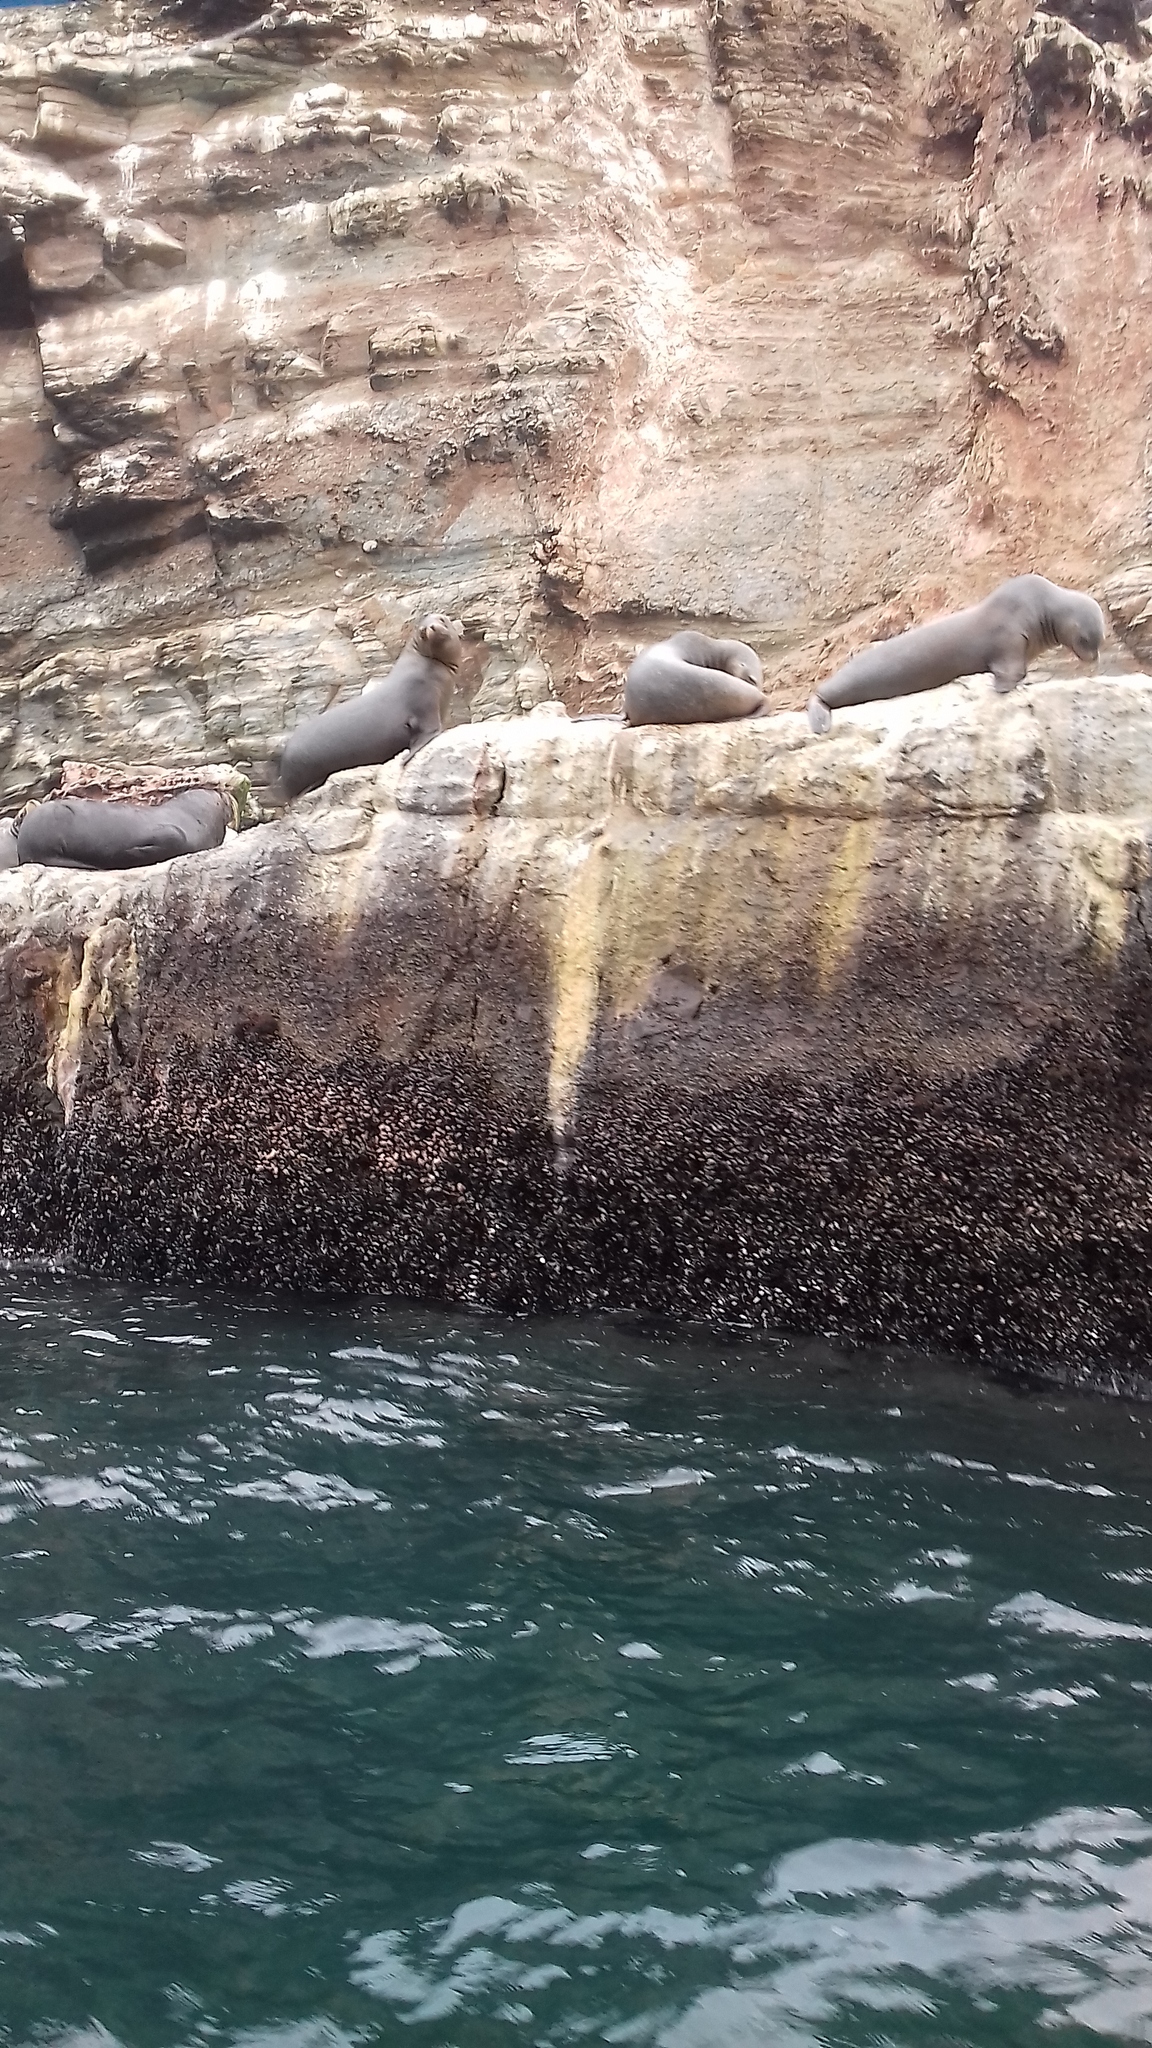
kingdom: Animalia
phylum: Chordata
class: Mammalia
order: Carnivora
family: Otariidae
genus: Otaria
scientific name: Otaria byronia
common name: South american sea lion
